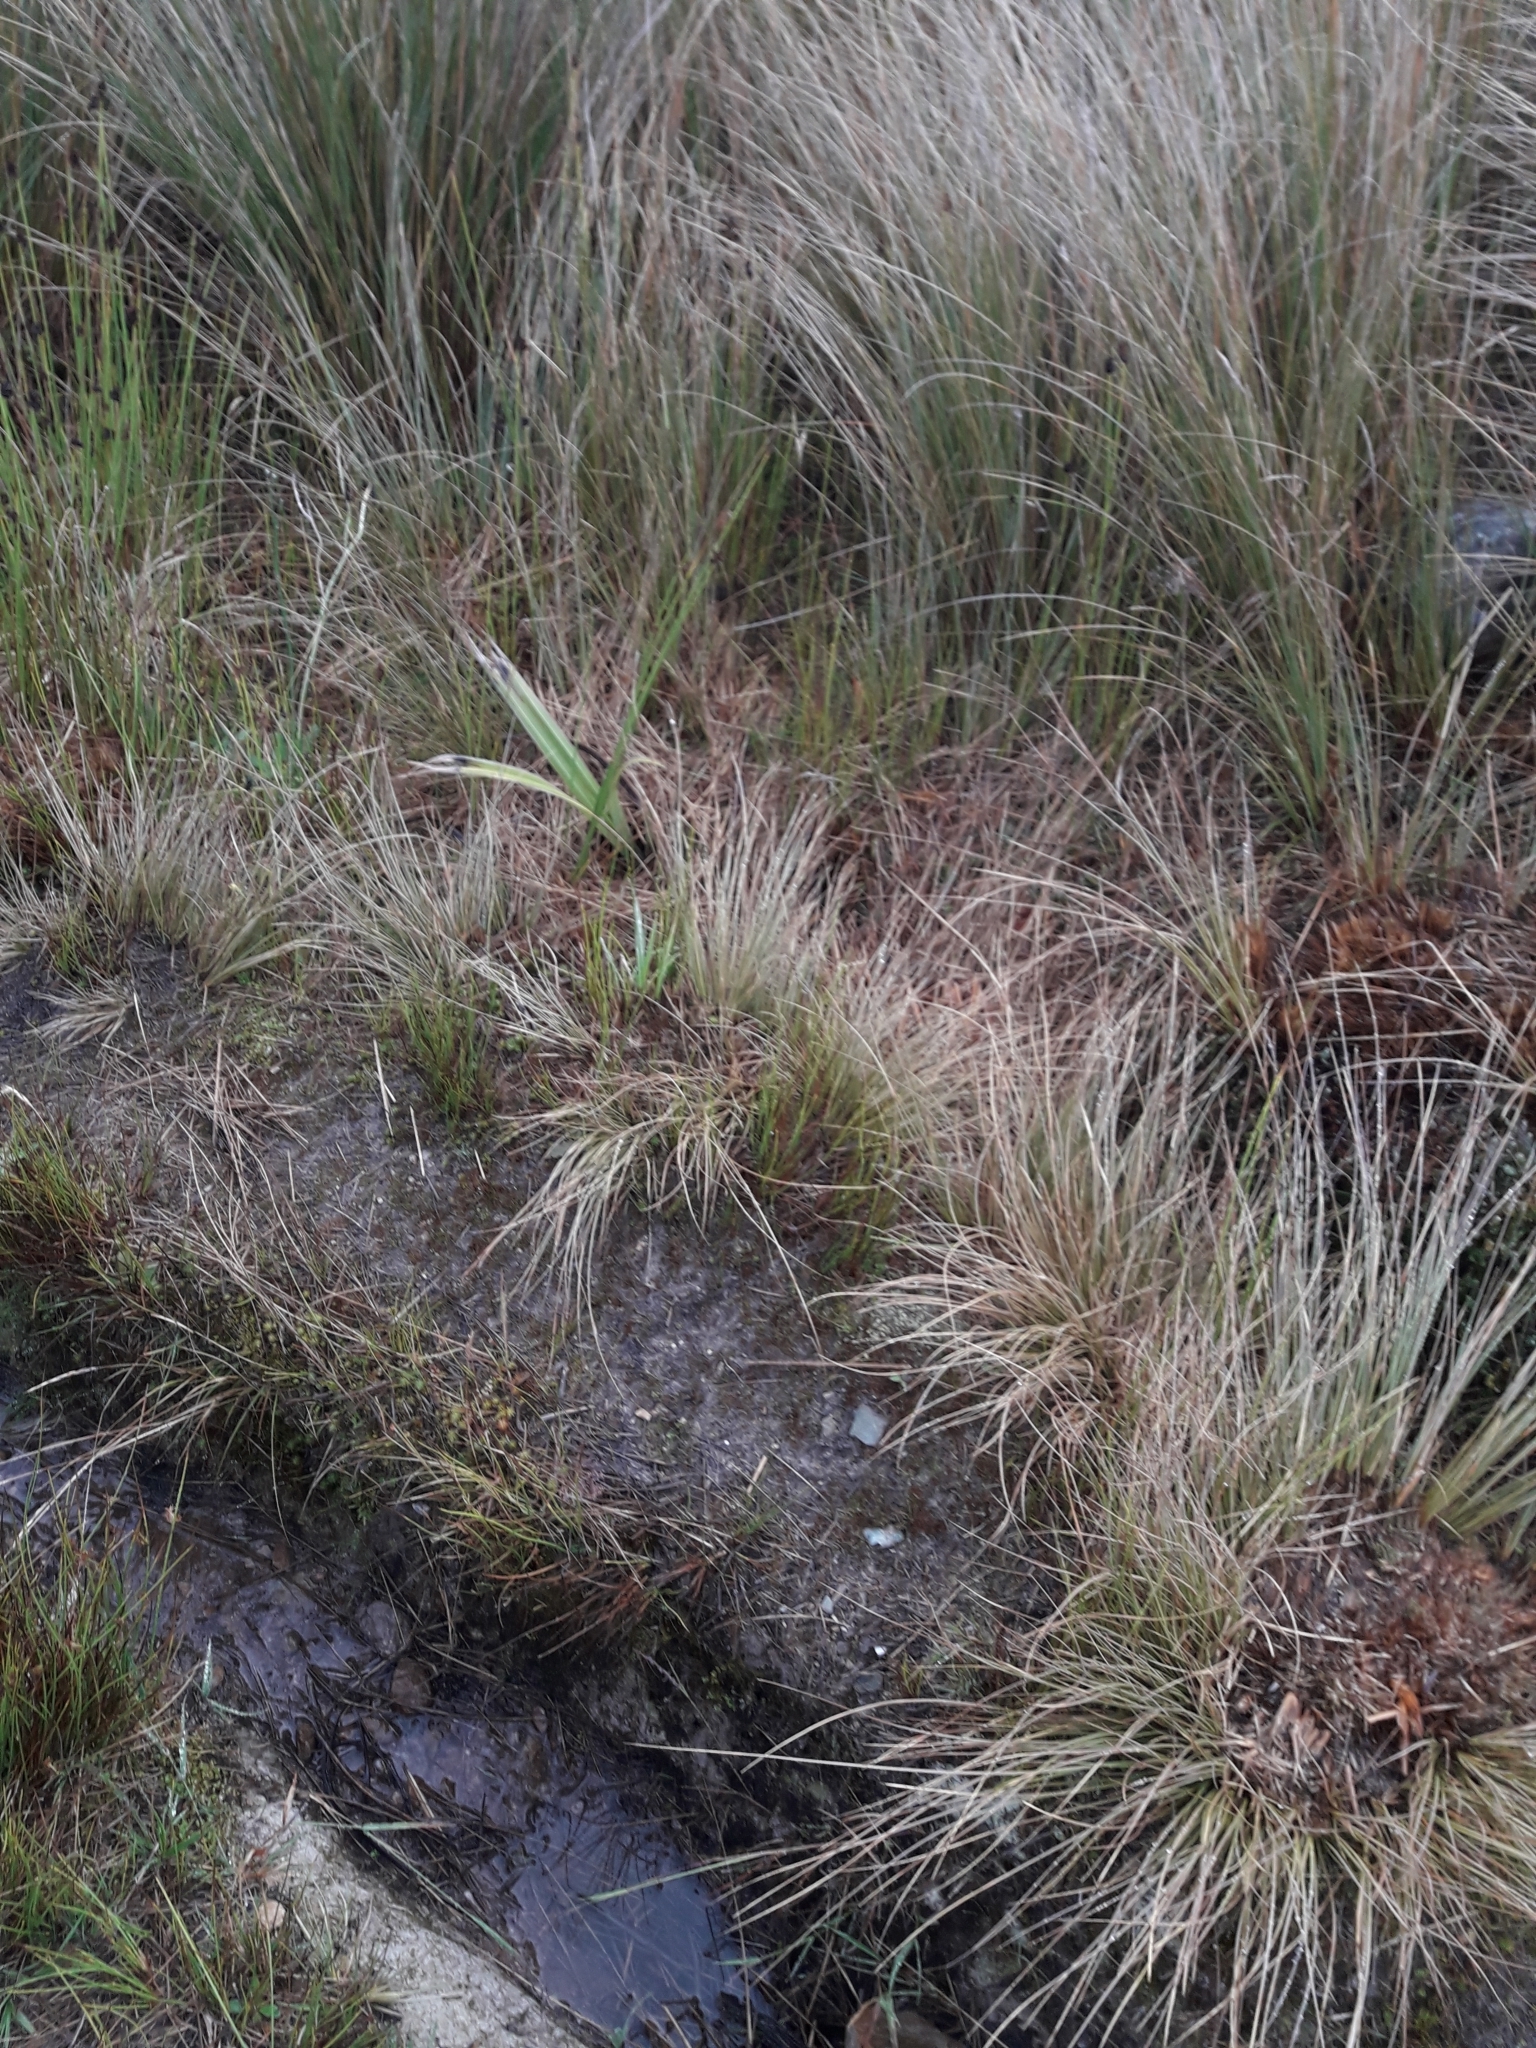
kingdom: Plantae
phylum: Tracheophyta
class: Liliopsida
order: Poales
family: Juncaceae
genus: Juncus
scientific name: Juncus pusillus
